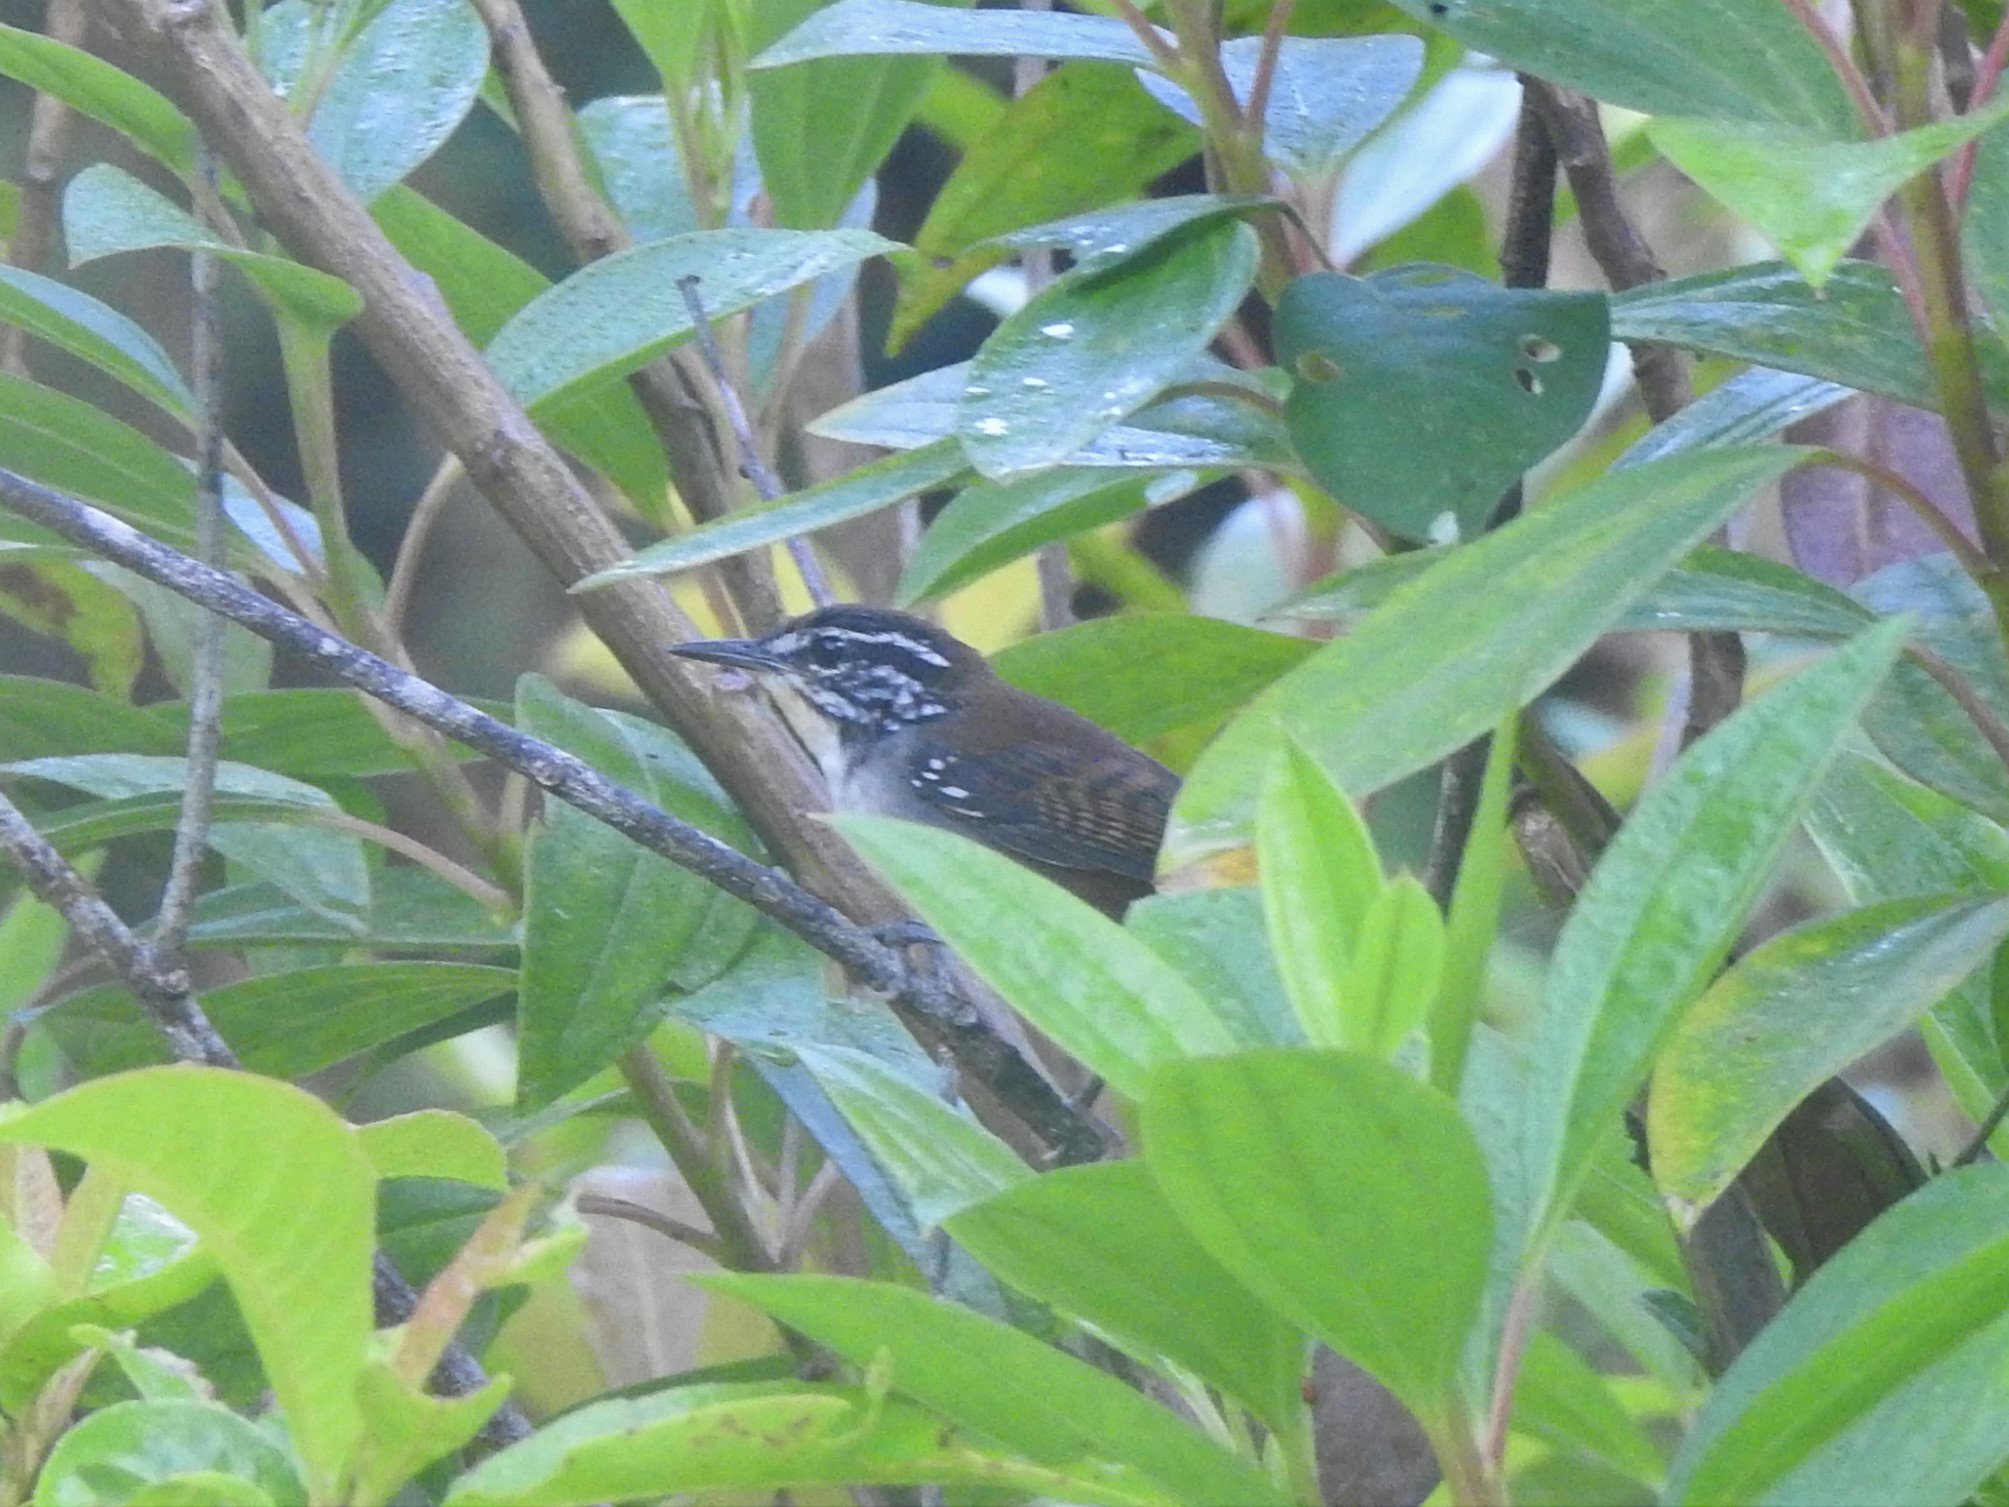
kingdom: Animalia
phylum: Chordata
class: Aves
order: Passeriformes
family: Troglodytidae
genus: Henicorhina
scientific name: Henicorhina leucosticta
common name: White-breasted wood-wren
